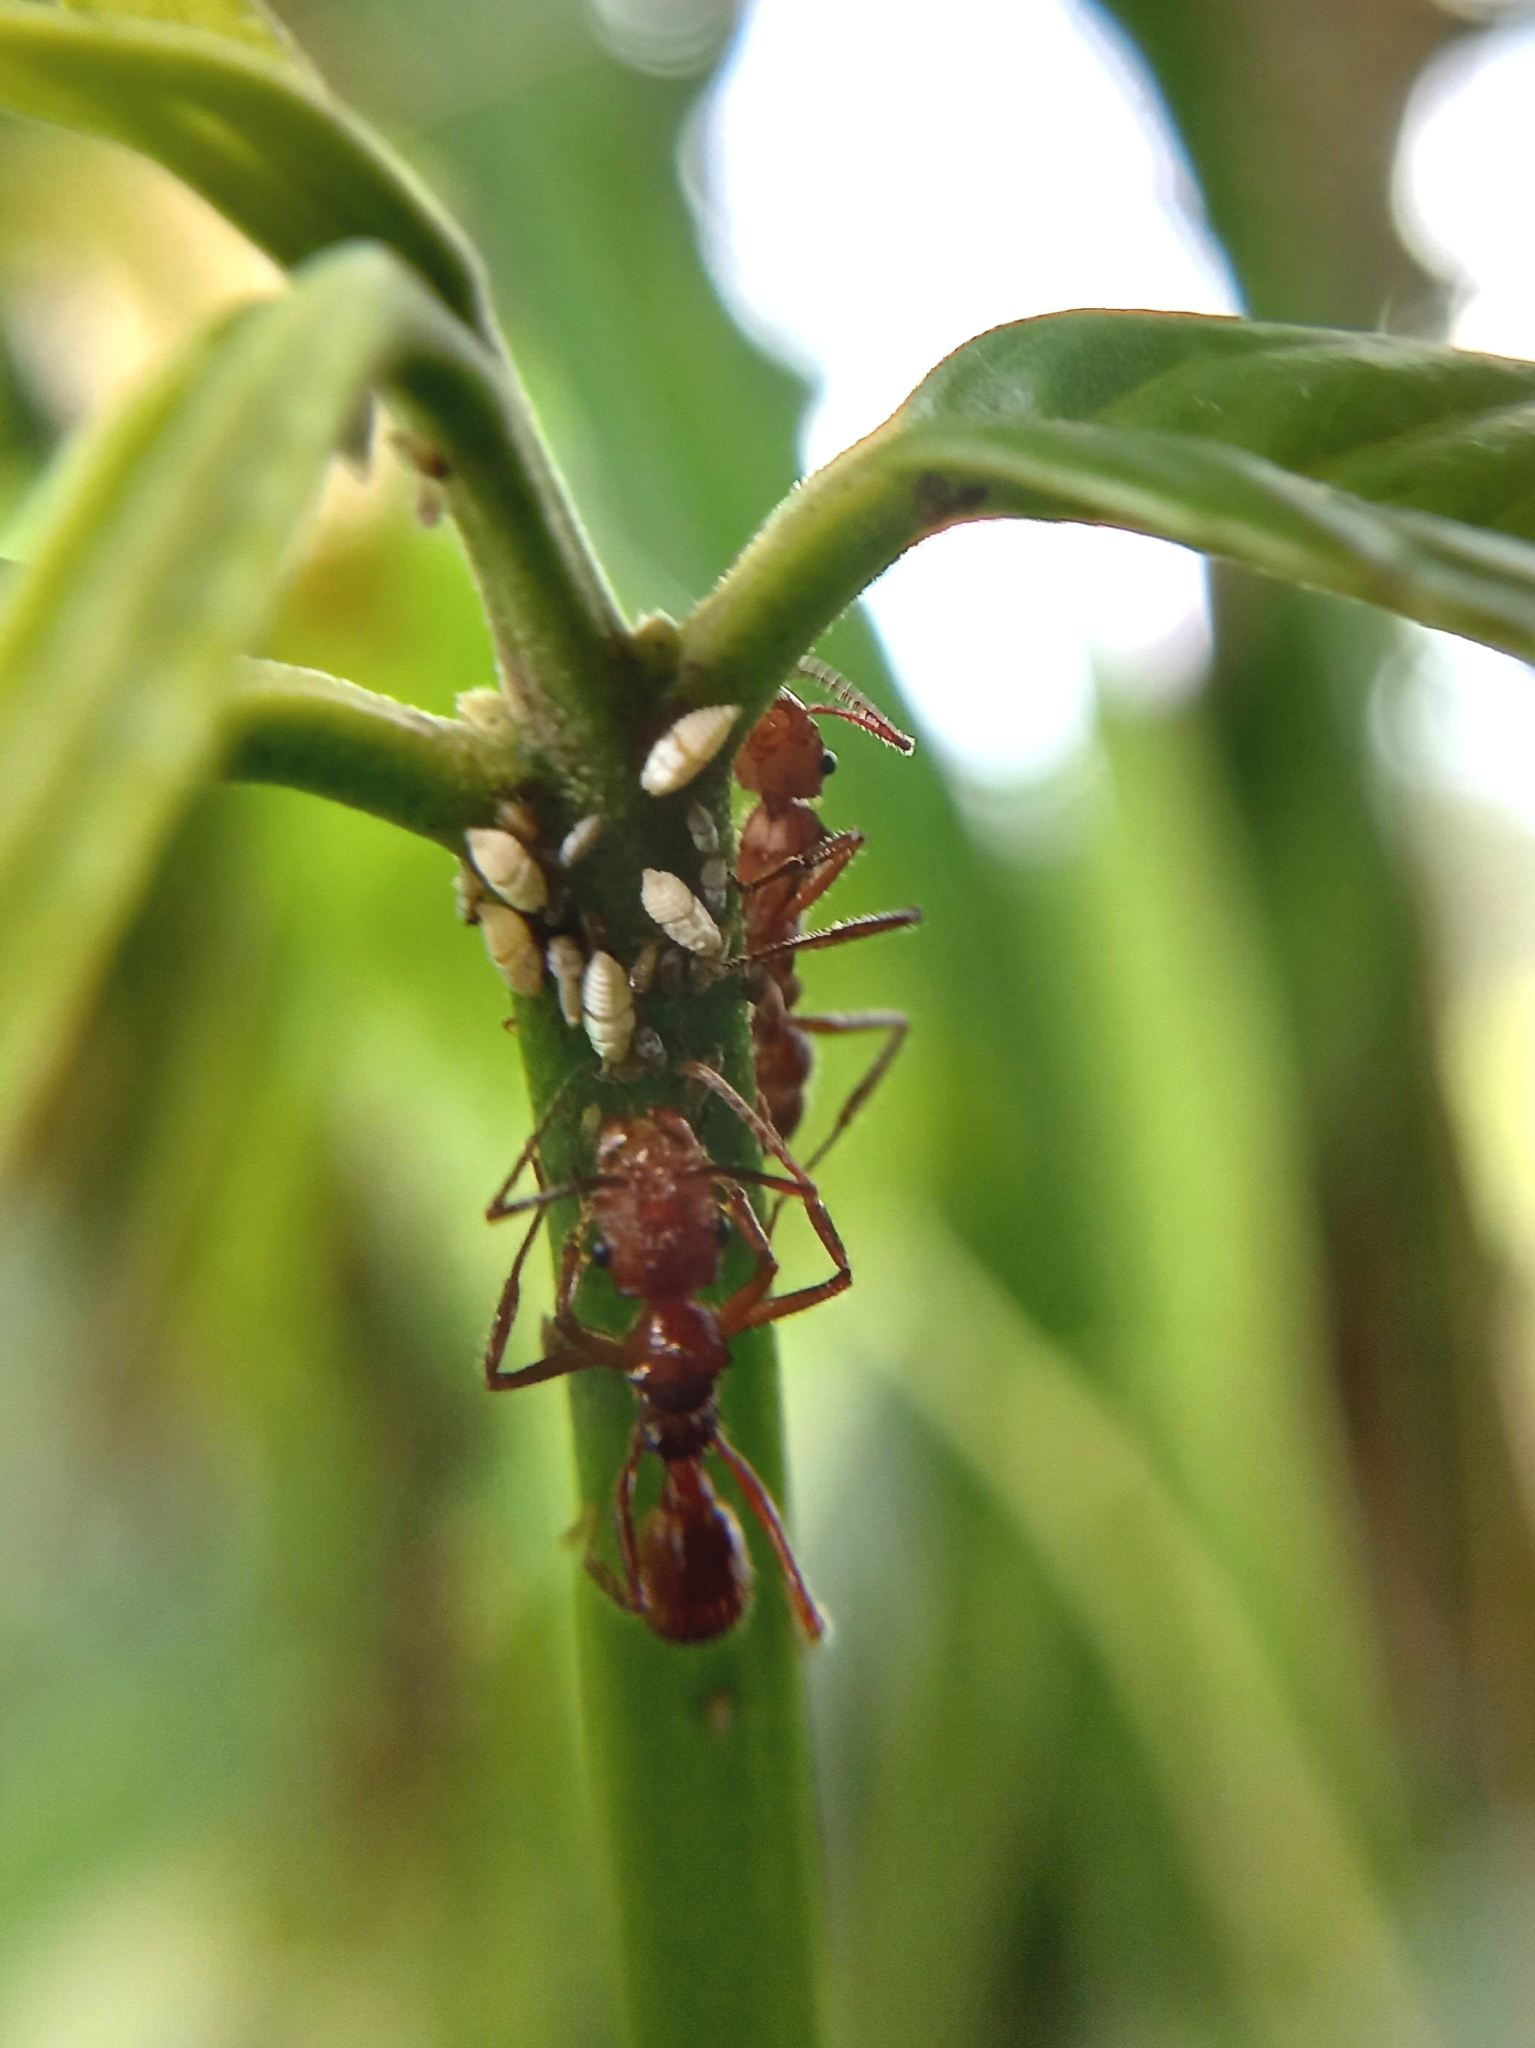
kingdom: Animalia
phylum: Arthropoda
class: Insecta
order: Hymenoptera
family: Formicidae
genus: Ectatomma
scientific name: Ectatomma tuberculatum
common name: Ant
